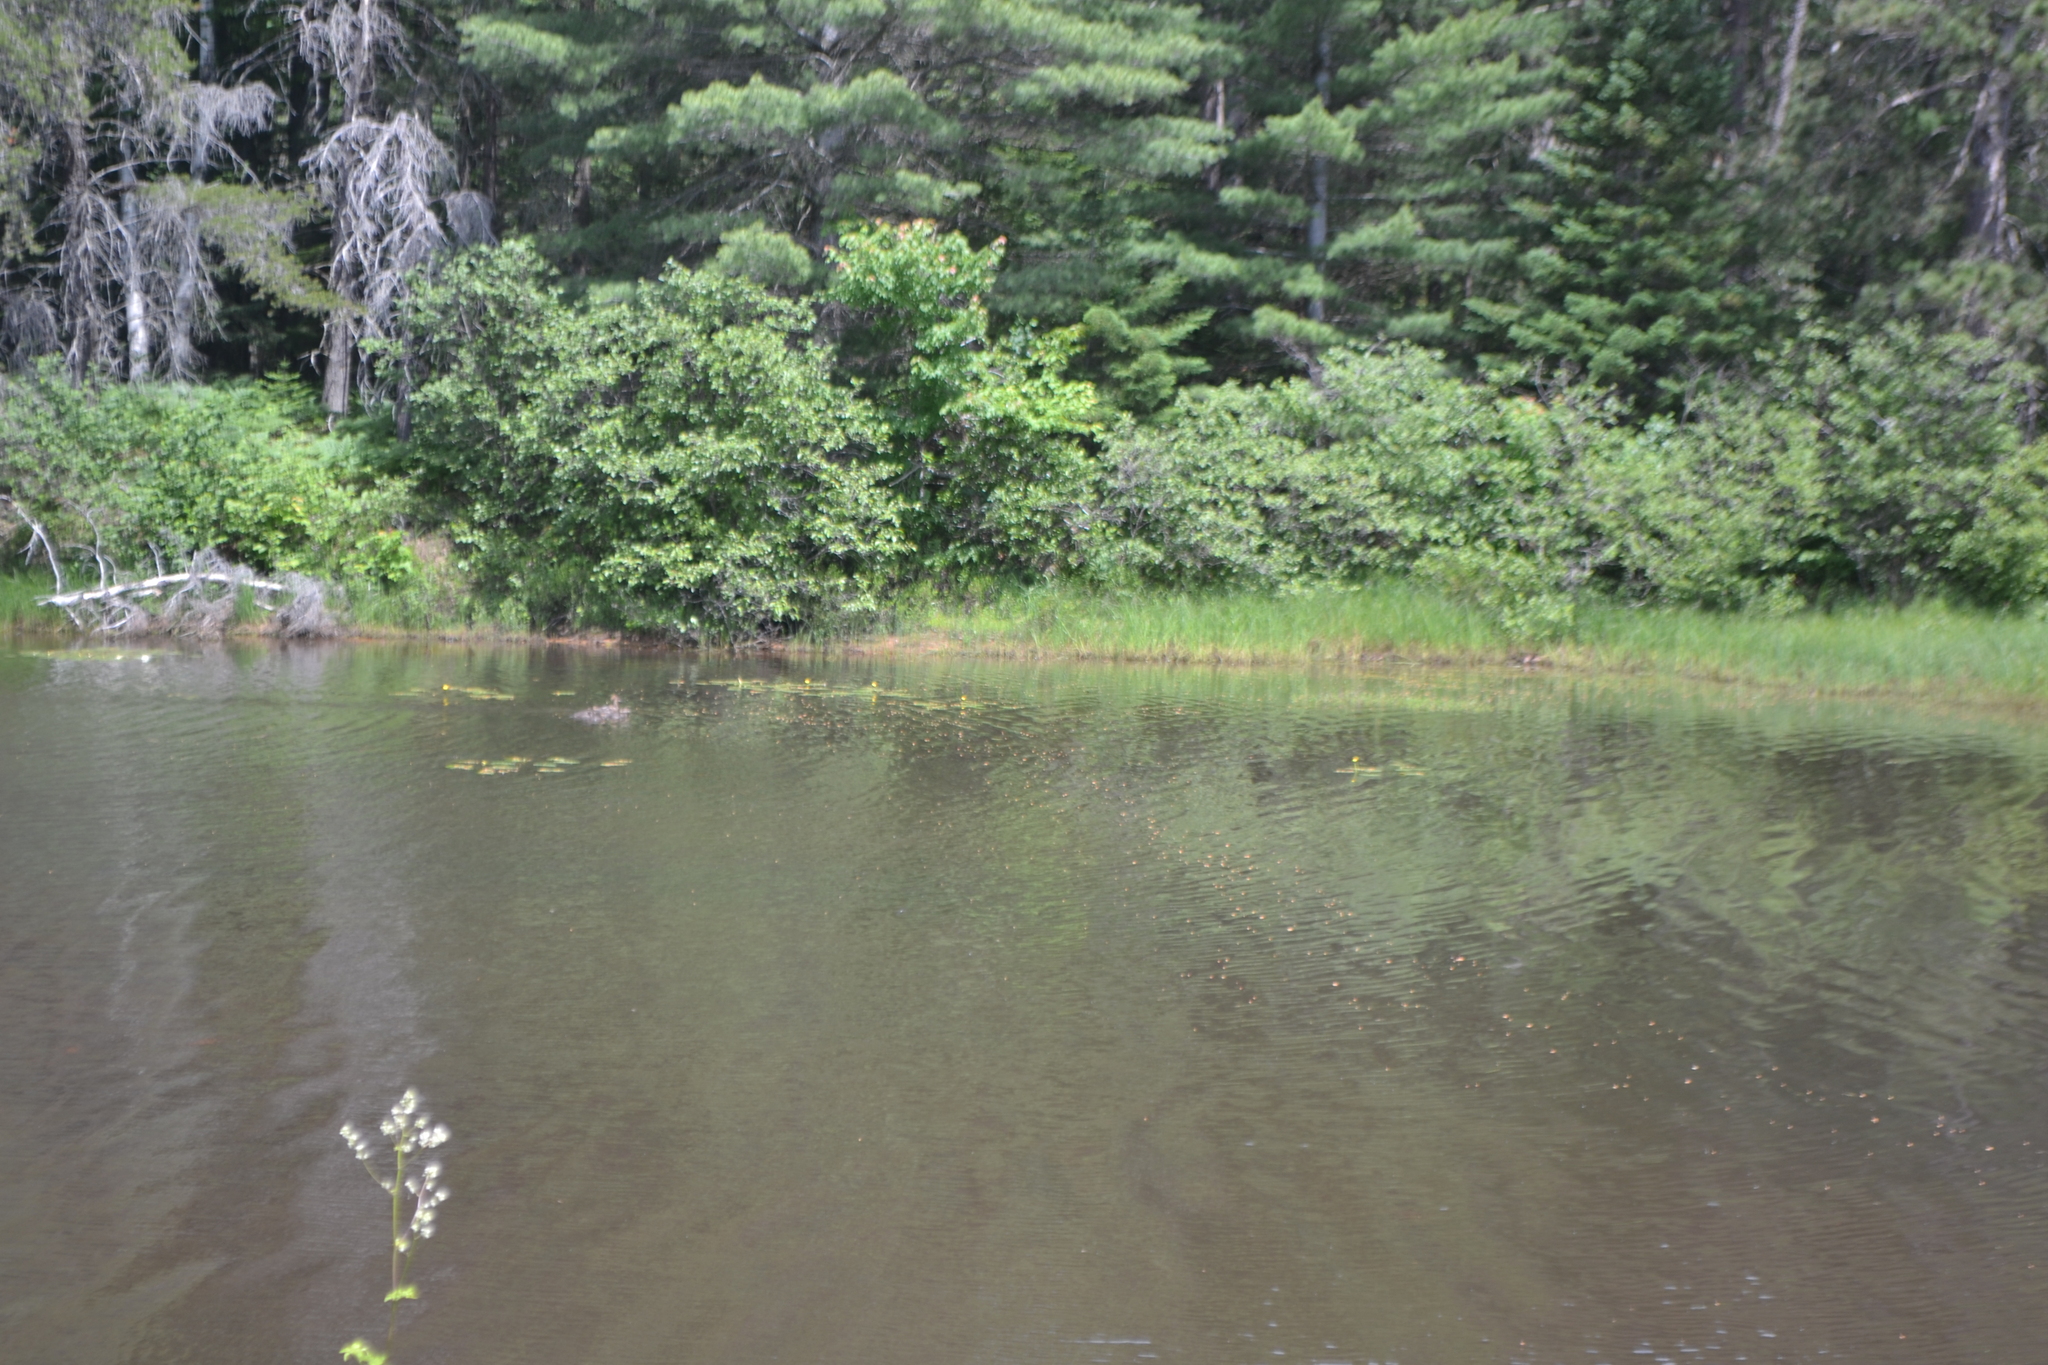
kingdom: Animalia
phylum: Chordata
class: Aves
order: Anseriformes
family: Anatidae
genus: Mergus
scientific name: Mergus merganser
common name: Common merganser
